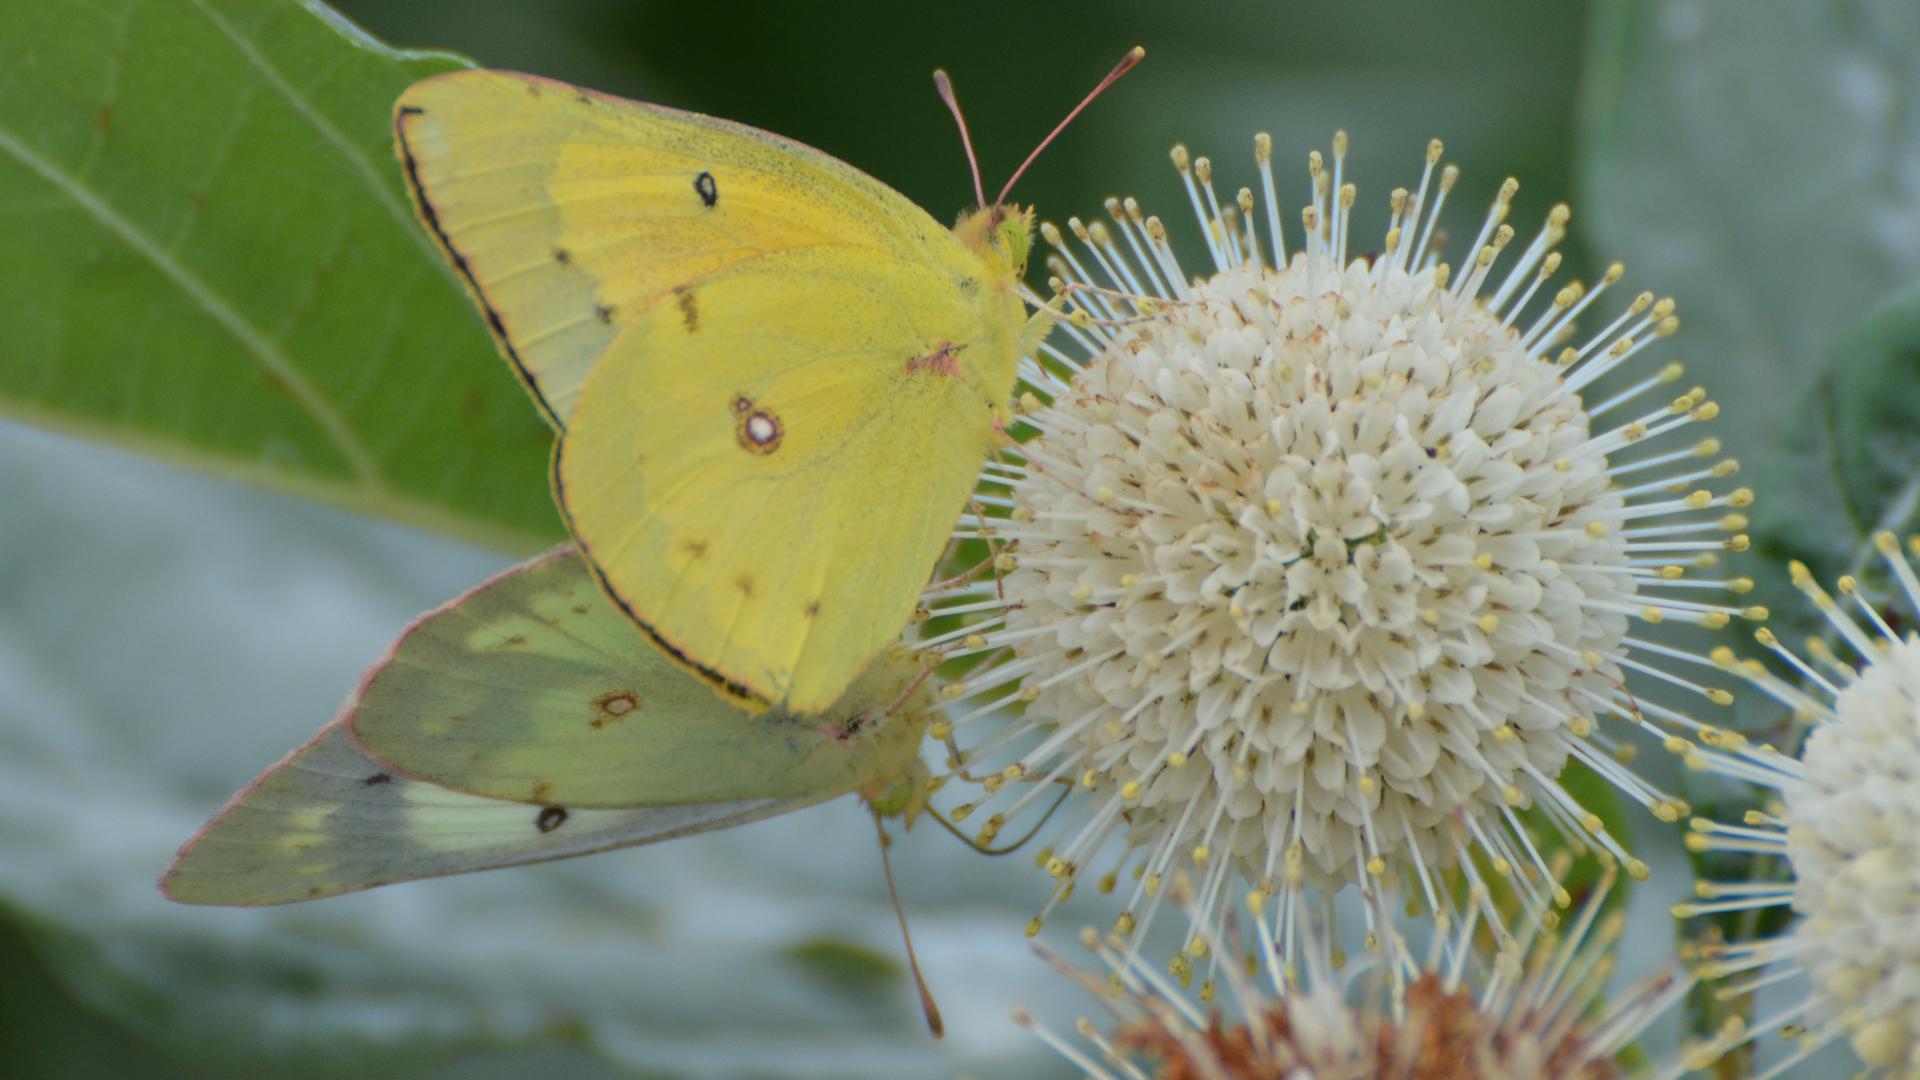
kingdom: Animalia
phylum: Arthropoda
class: Insecta
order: Lepidoptera
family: Pieridae
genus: Colias
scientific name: Colias philodice
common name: Clouded sulphur
